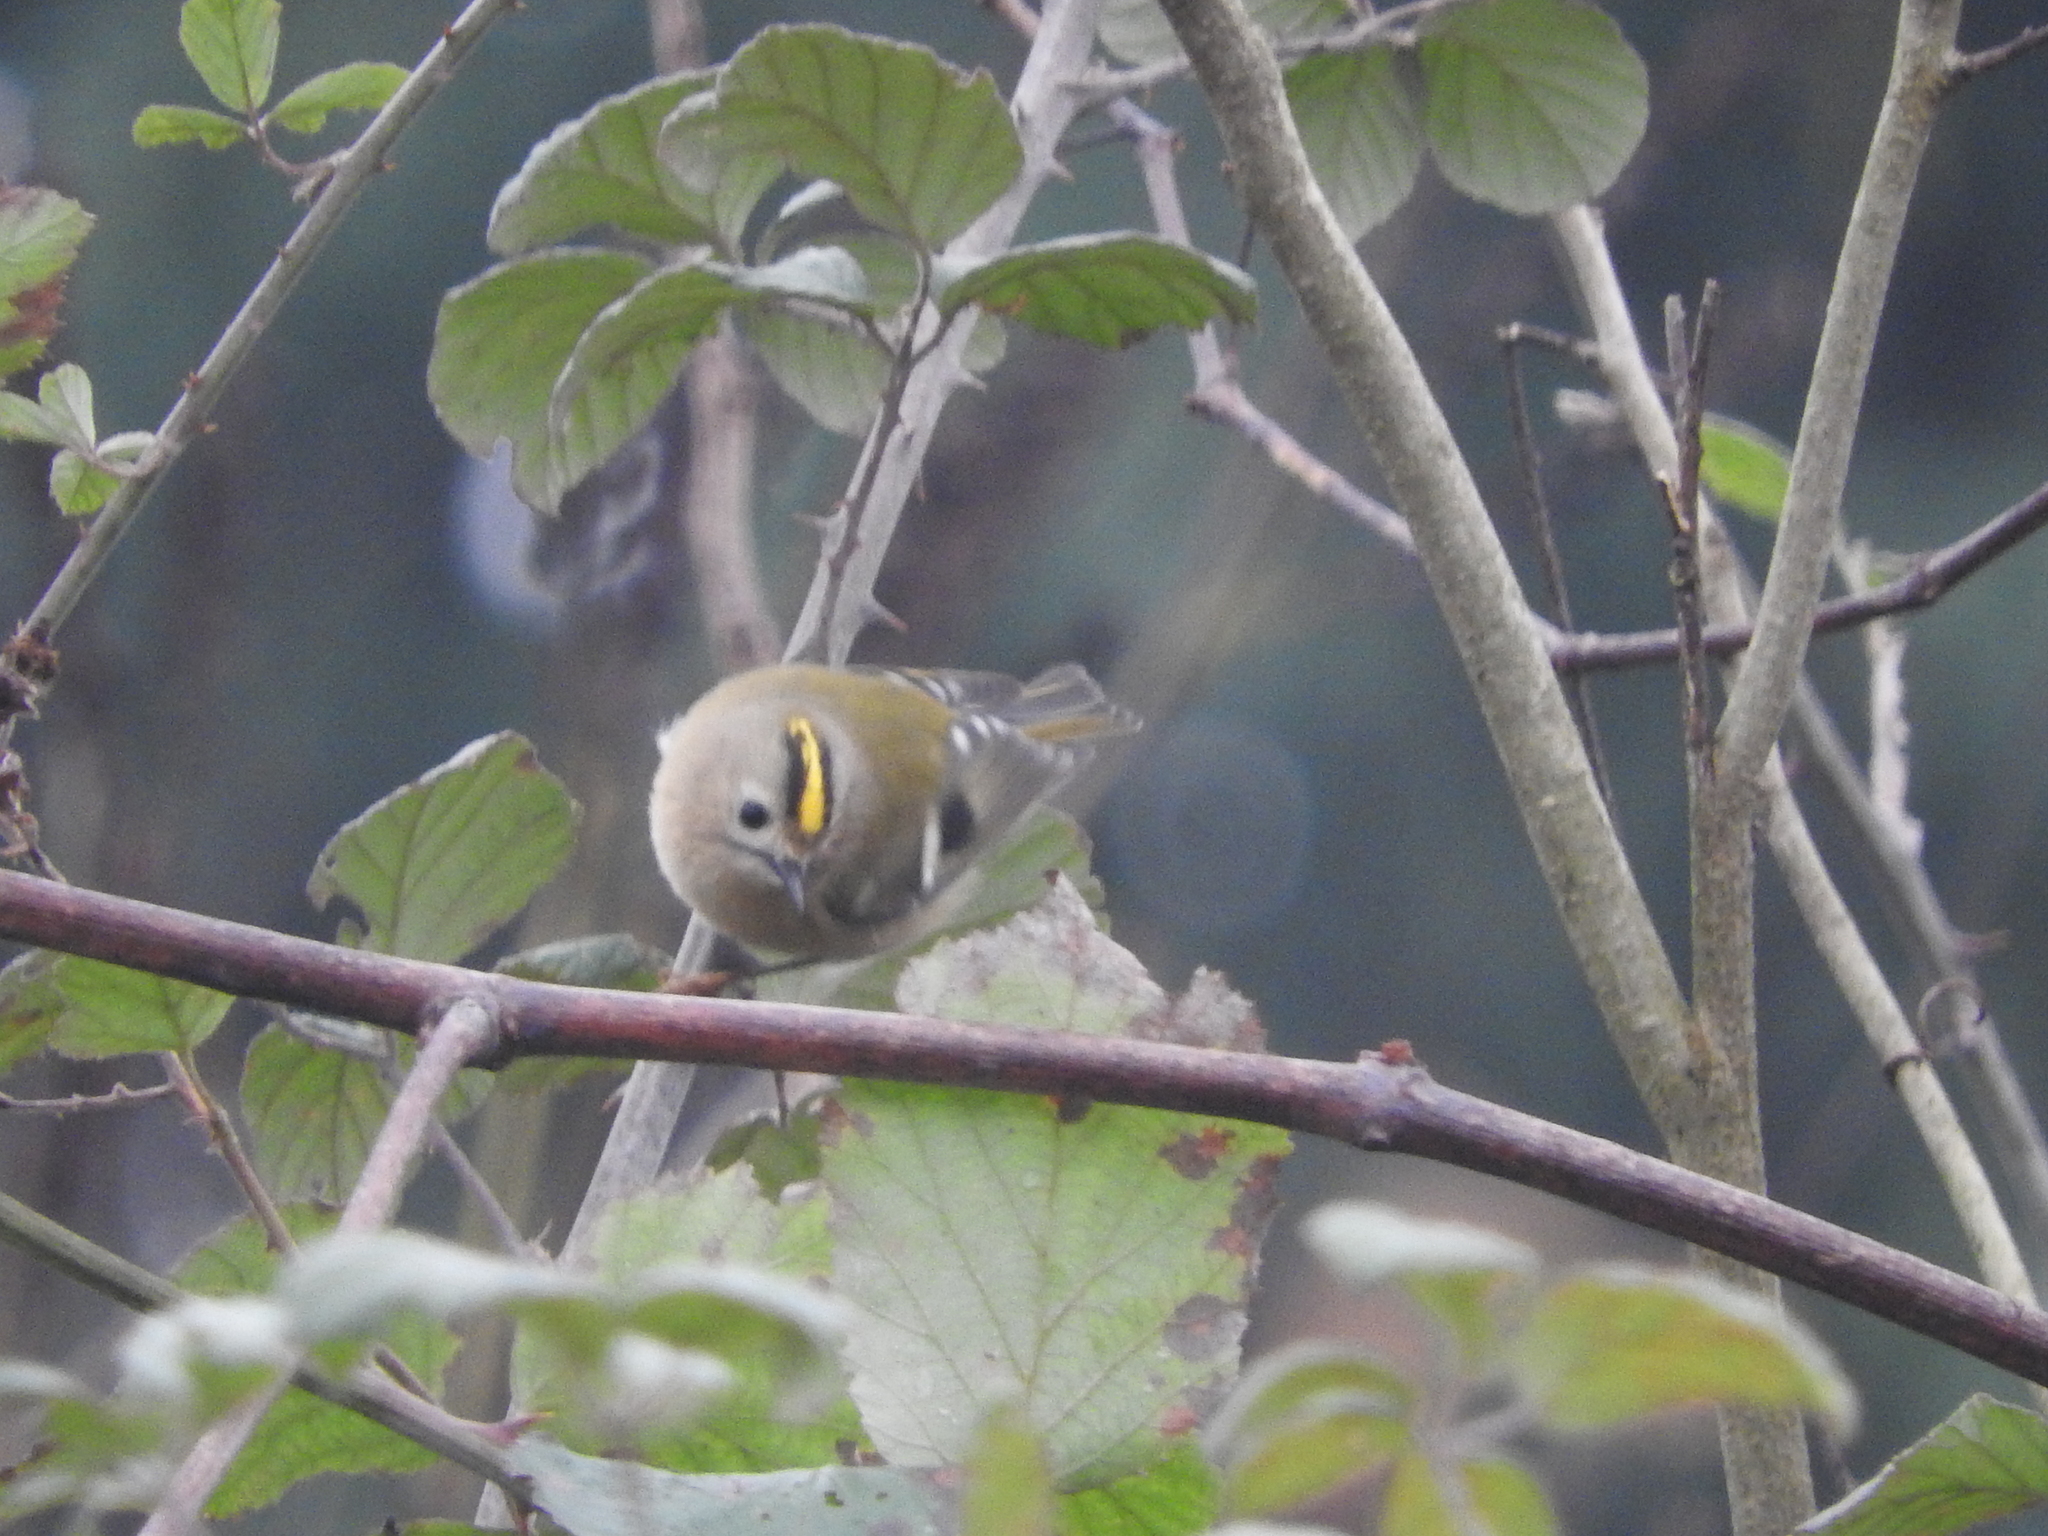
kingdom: Animalia
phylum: Chordata
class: Aves
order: Passeriformes
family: Regulidae
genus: Regulus
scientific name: Regulus regulus
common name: Goldcrest
